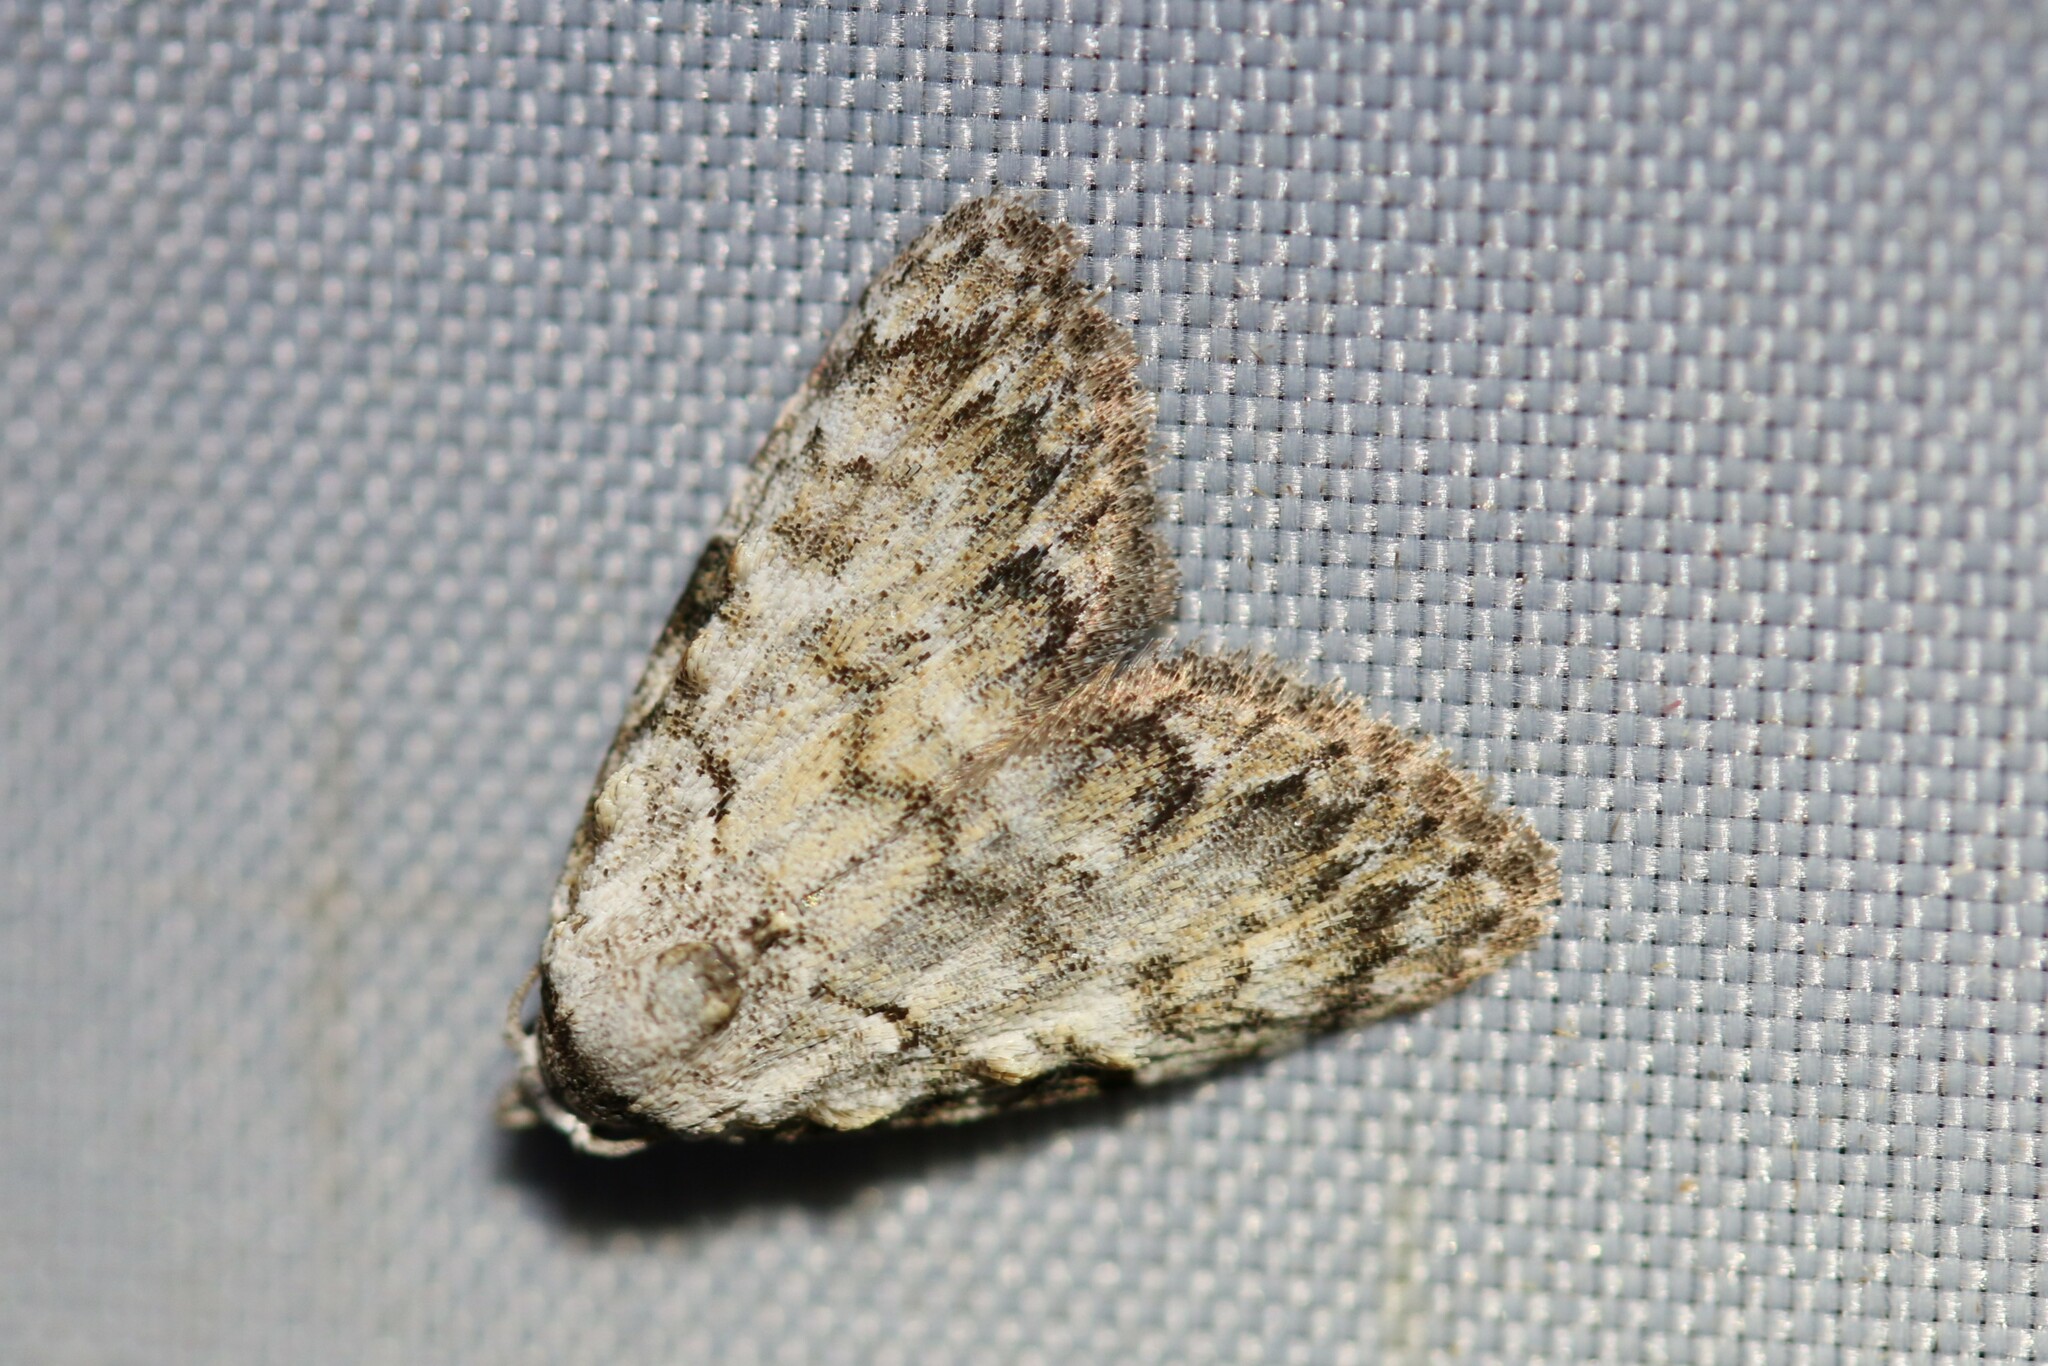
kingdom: Animalia
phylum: Arthropoda
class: Insecta
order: Lepidoptera
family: Nolidae
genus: Meganola
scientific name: Meganola strigula
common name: Small black arches
